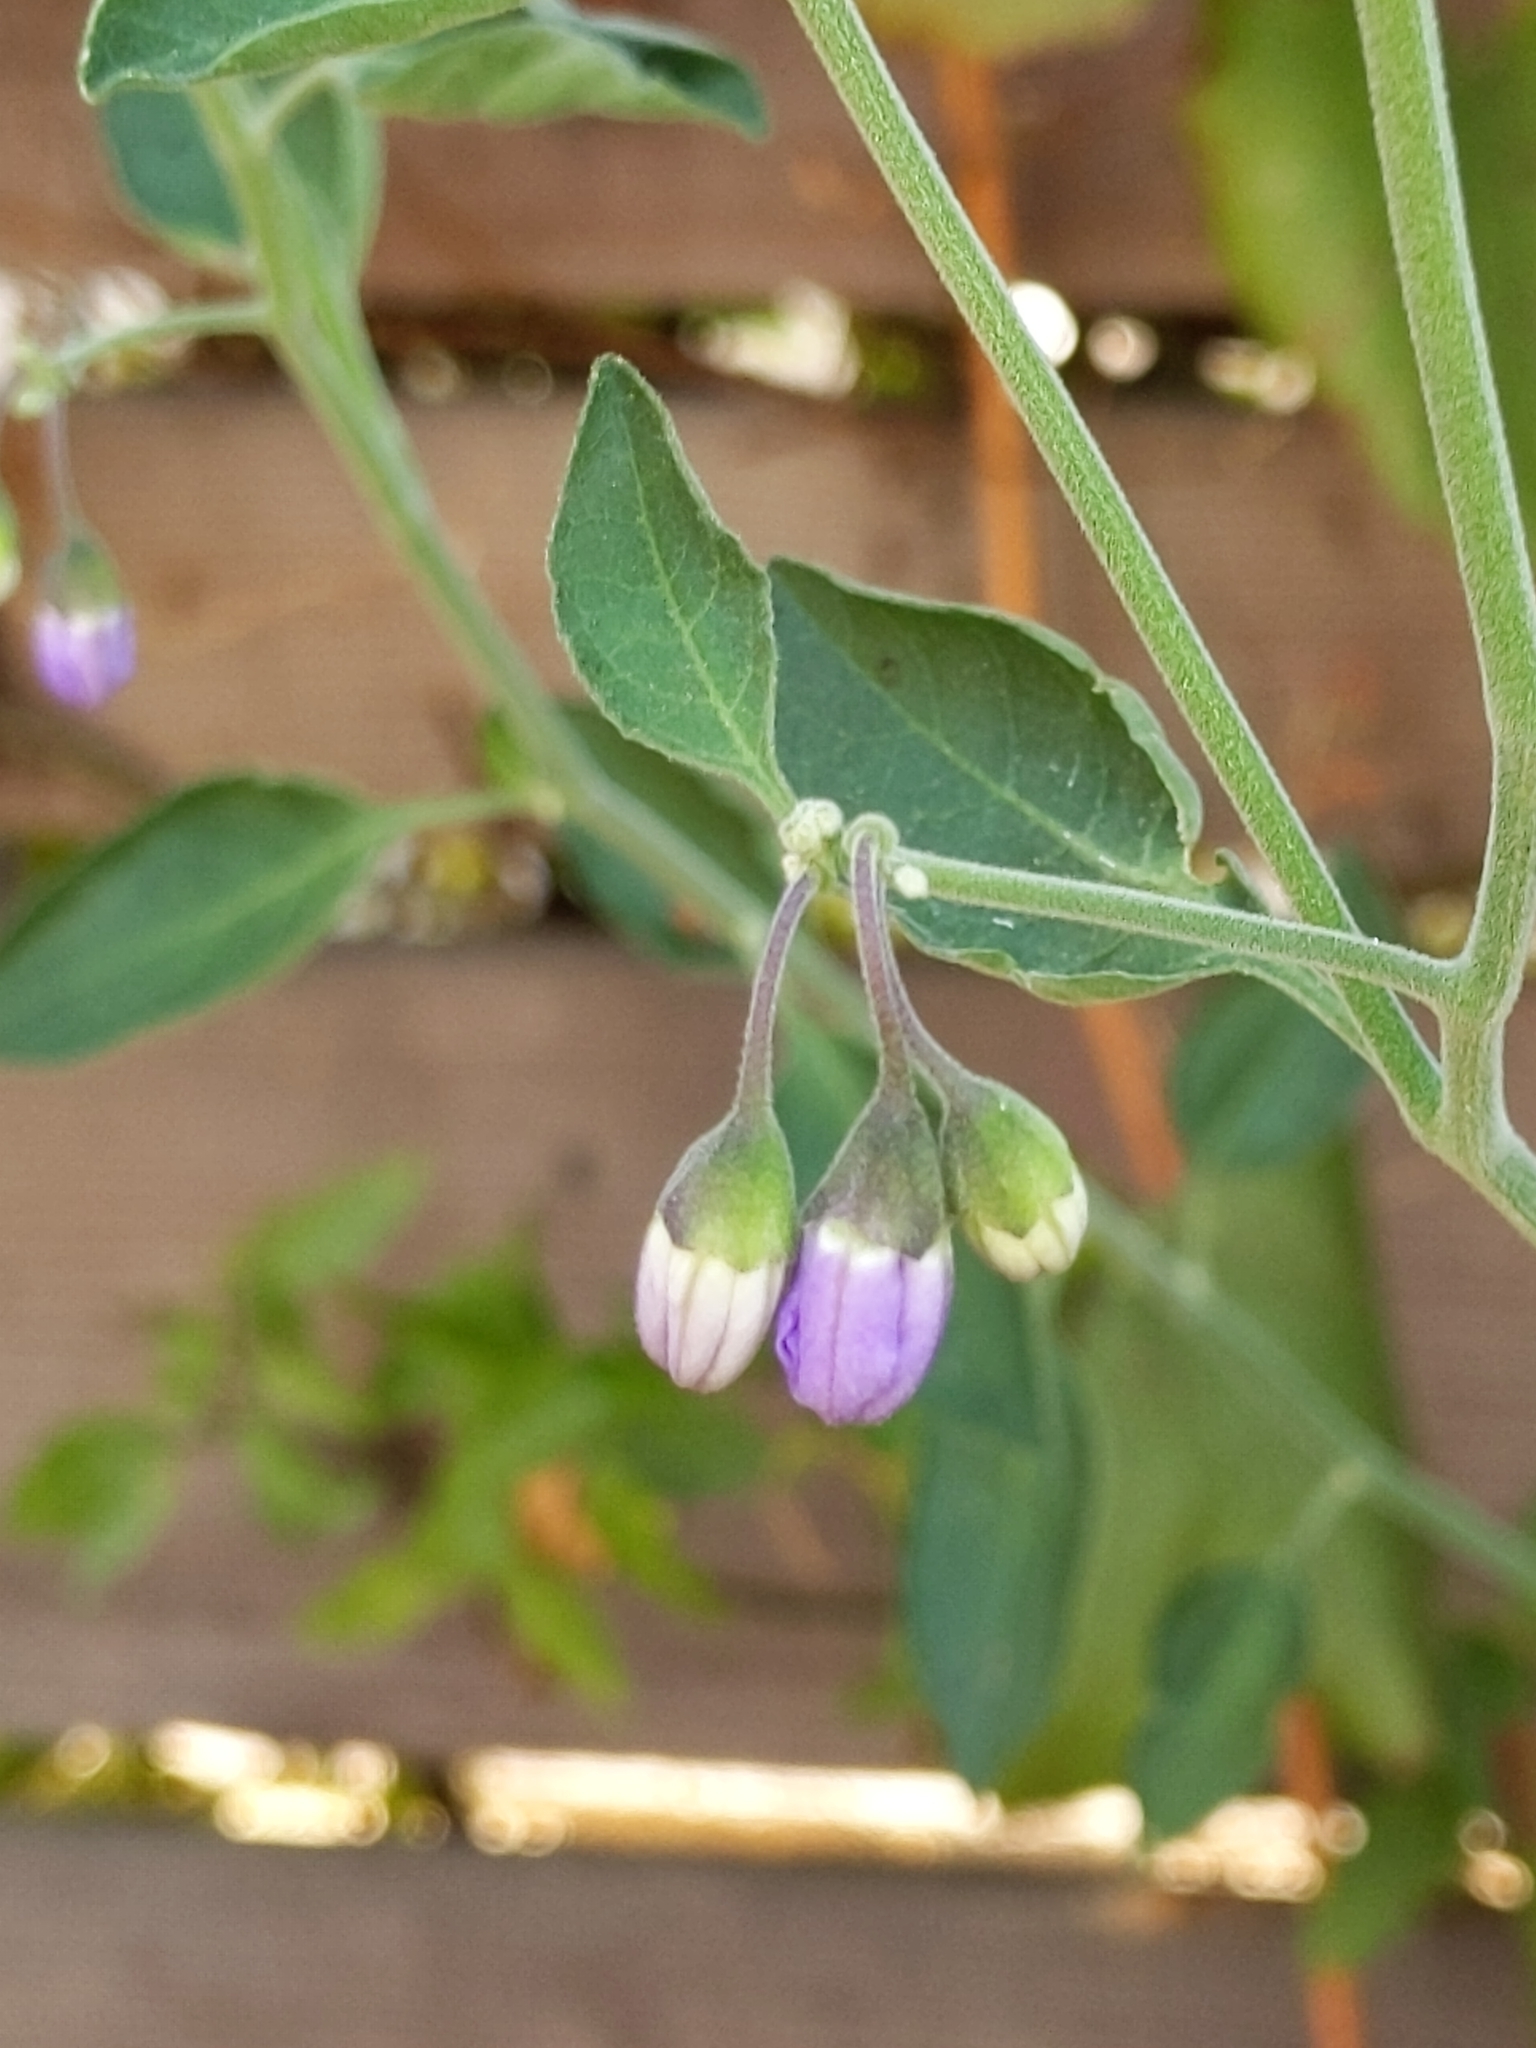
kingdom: Plantae
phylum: Tracheophyta
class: Magnoliopsida
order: Solanales
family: Solanaceae
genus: Solanum
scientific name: Solanum umbelliferum
